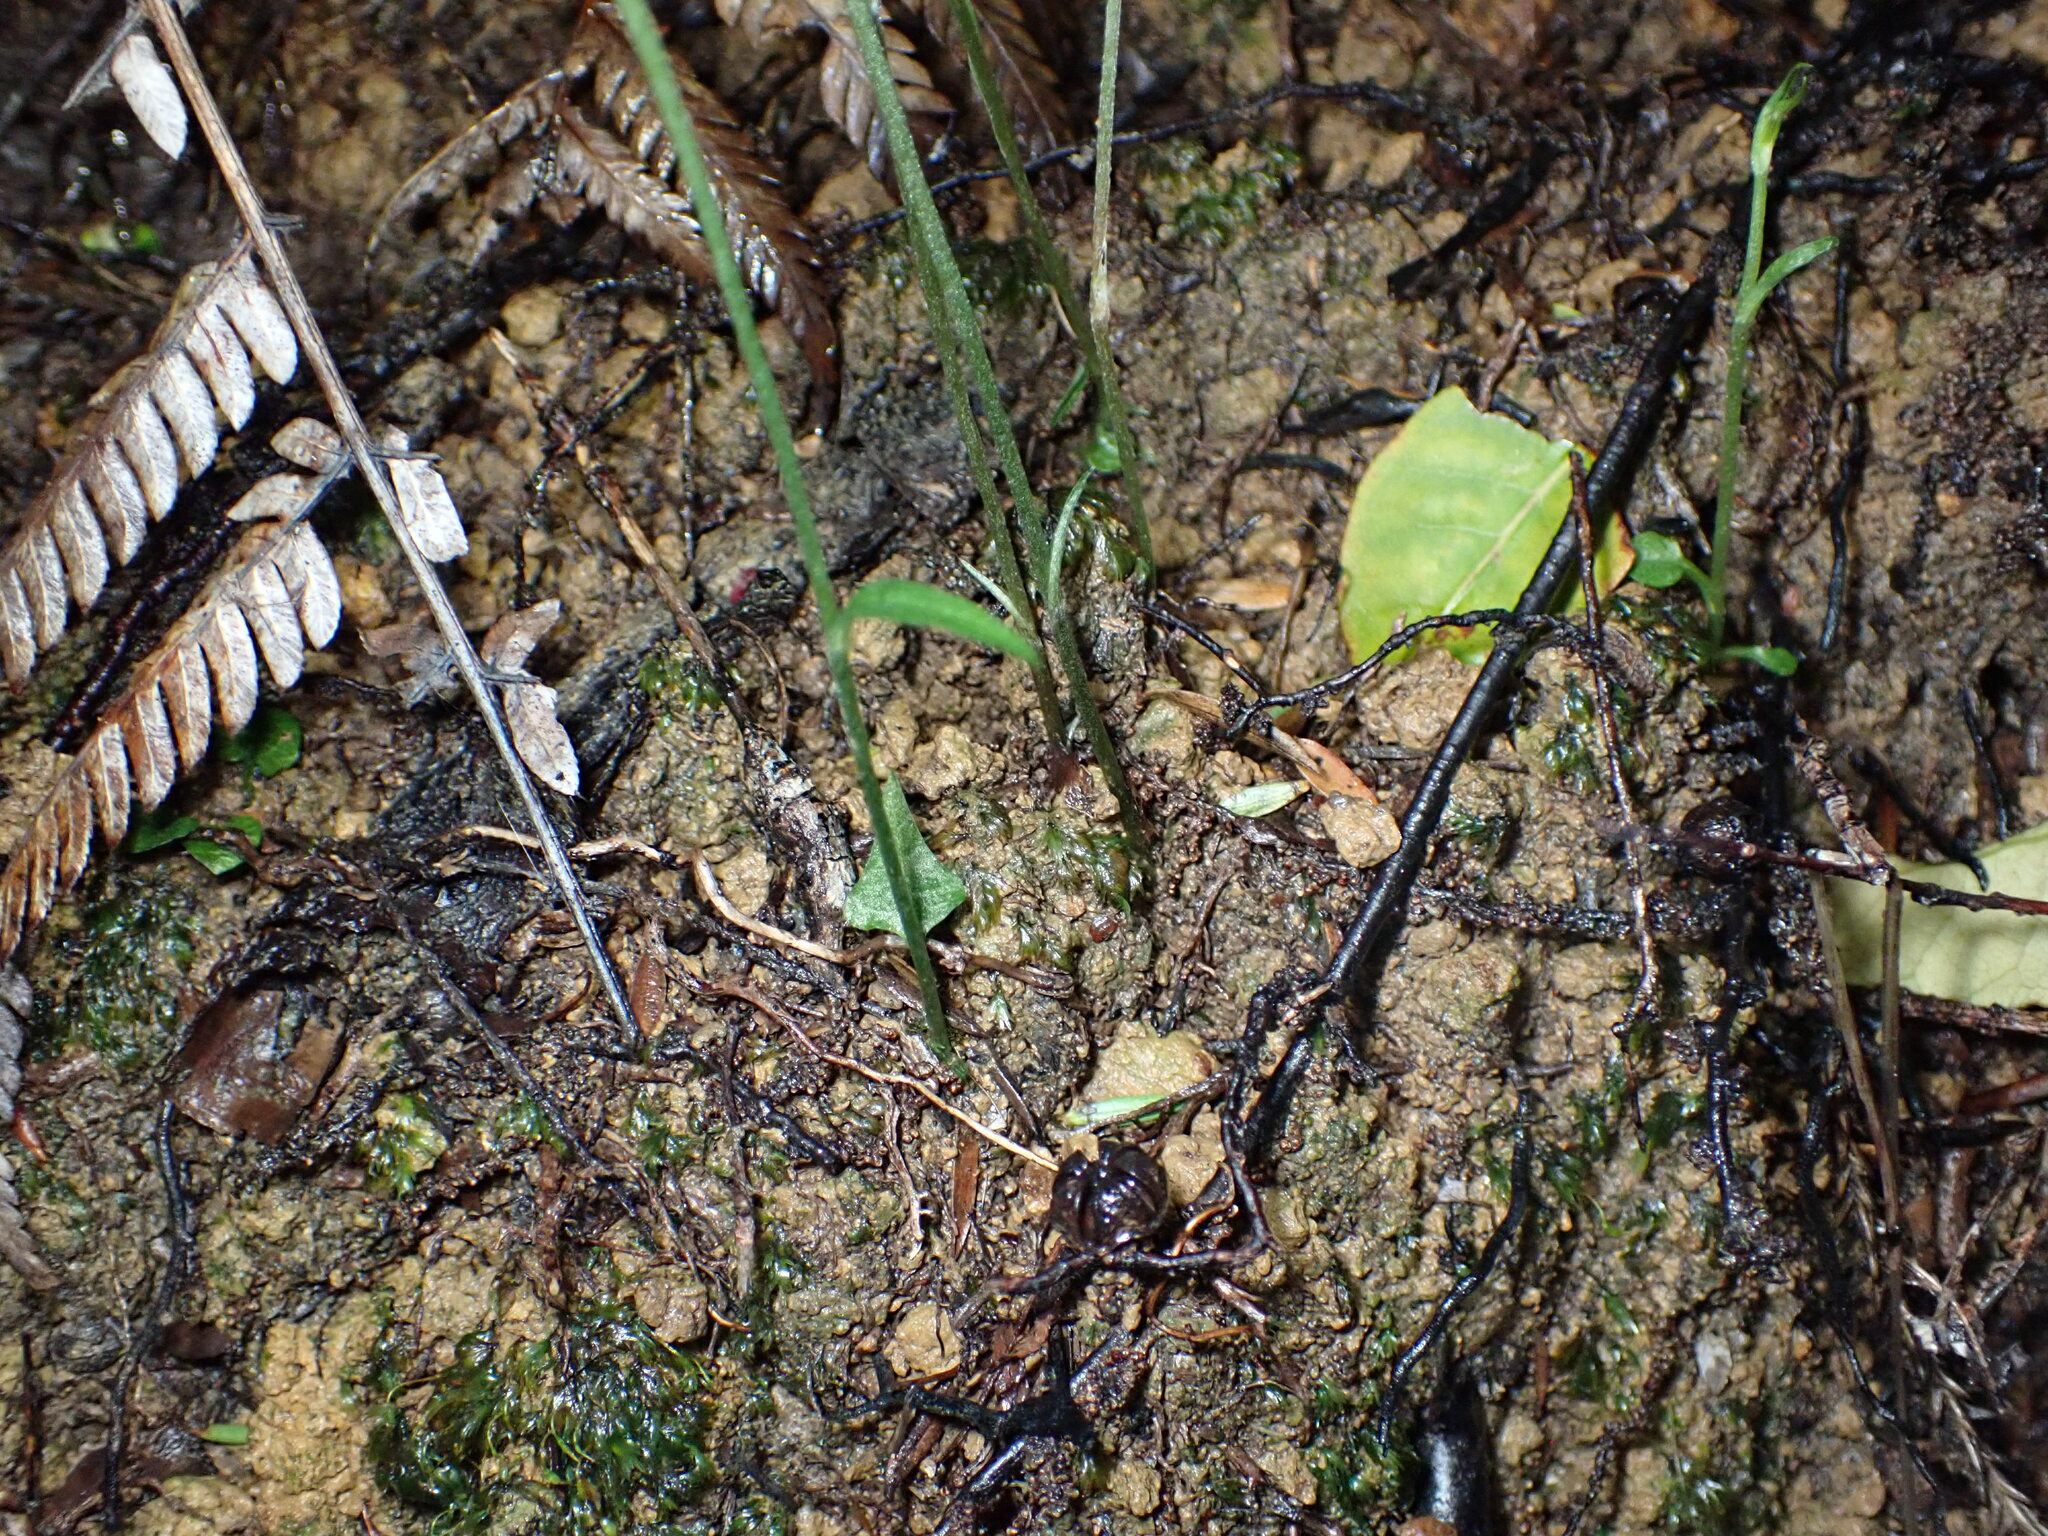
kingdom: Plantae
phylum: Tracheophyta
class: Liliopsida
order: Asparagales
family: Orchidaceae
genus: Pterostylis
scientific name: Pterostylis trullifolia
